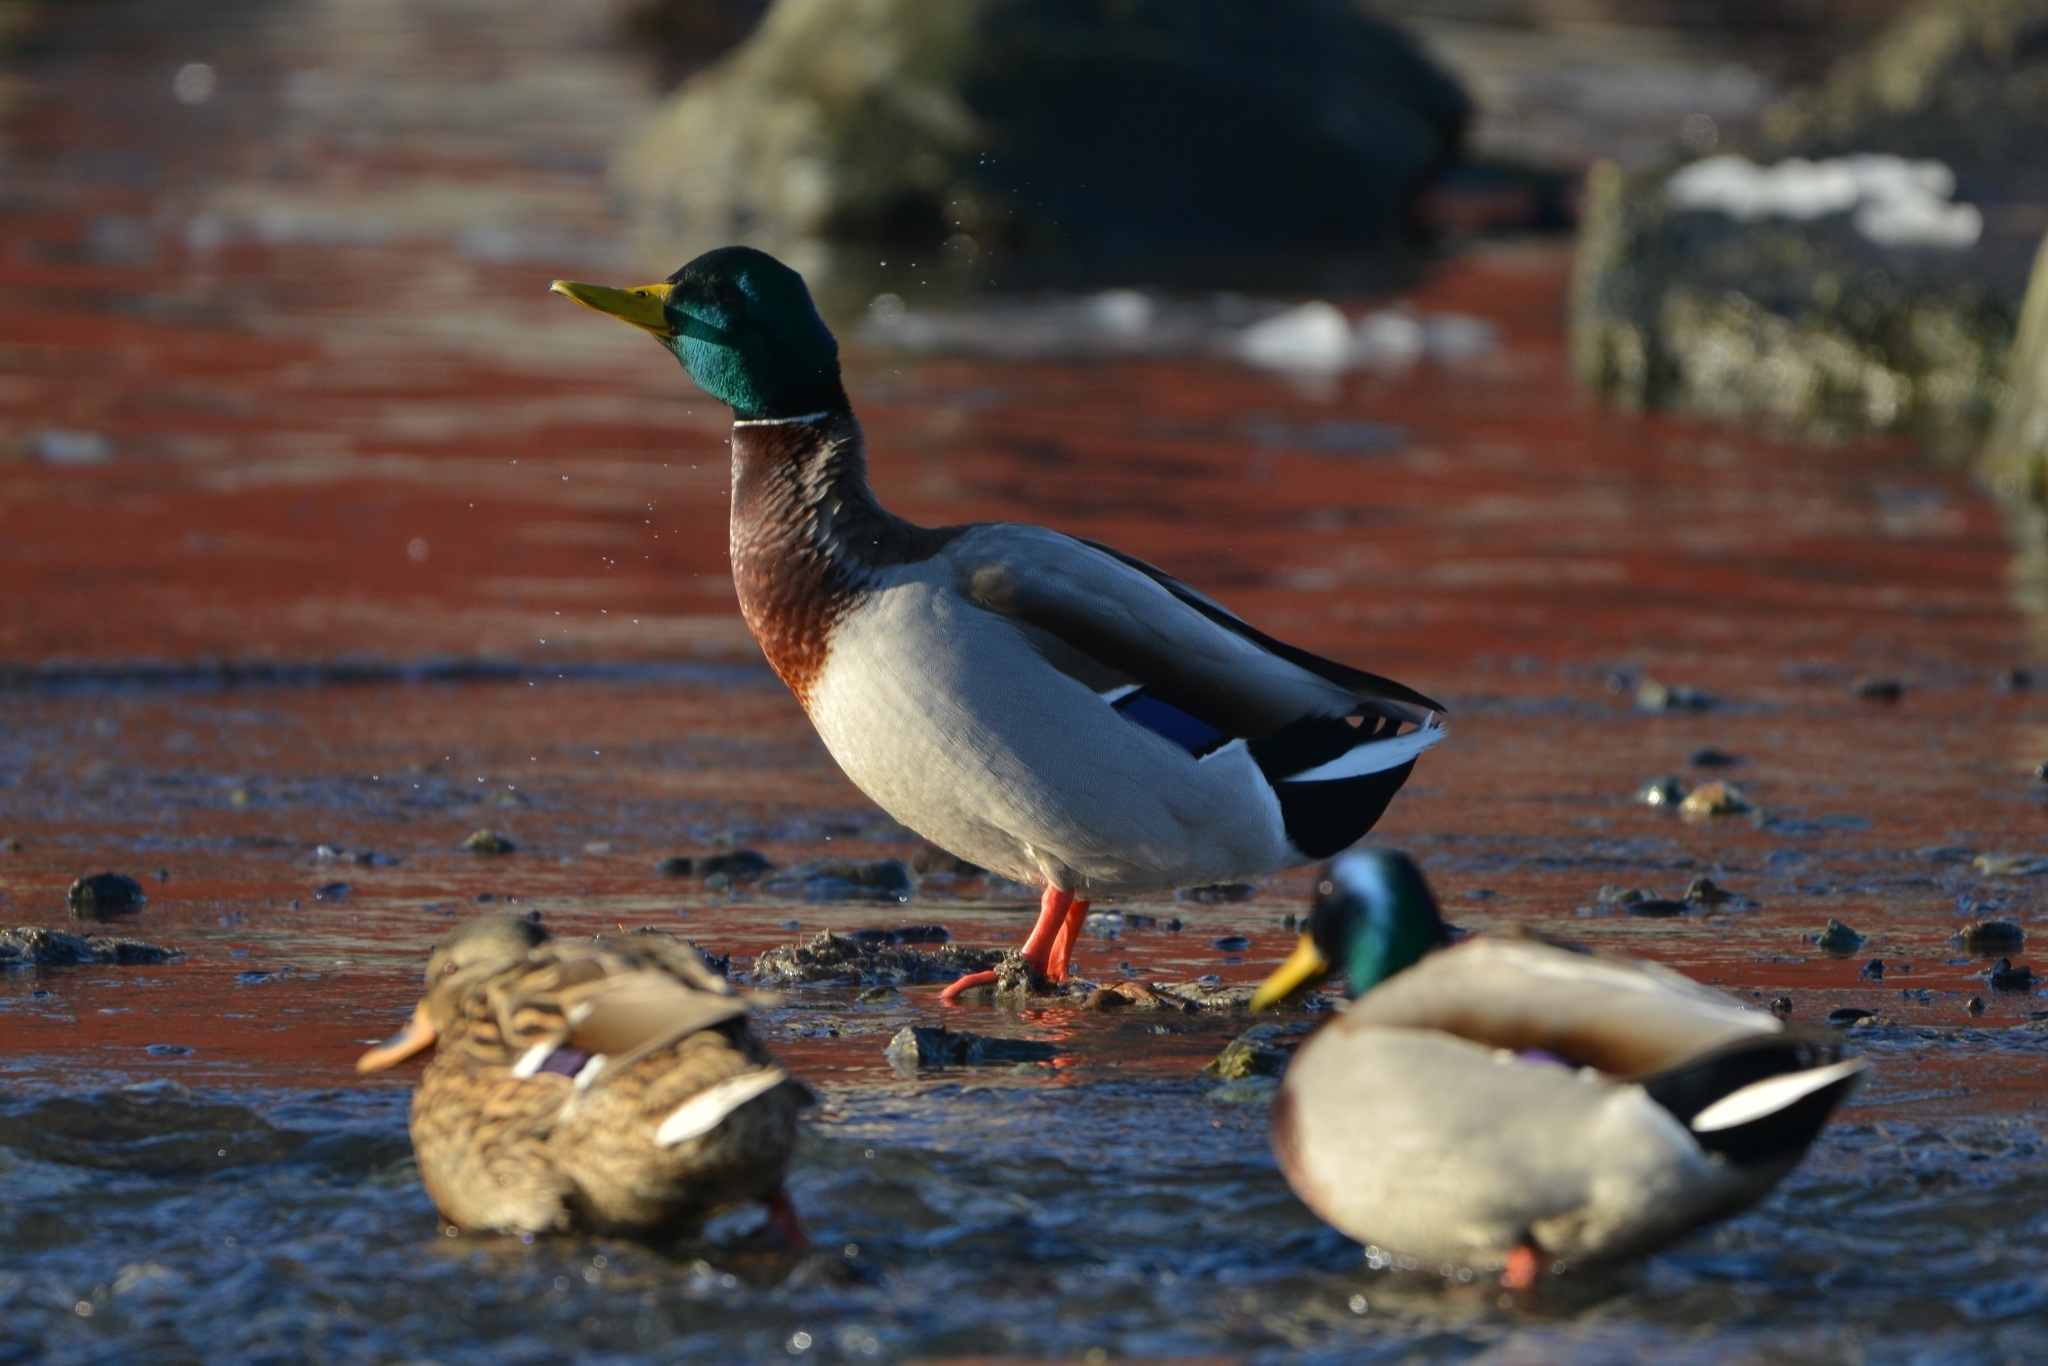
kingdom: Animalia
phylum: Chordata
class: Aves
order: Anseriformes
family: Anatidae
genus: Anas
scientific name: Anas platyrhynchos
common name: Mallard
